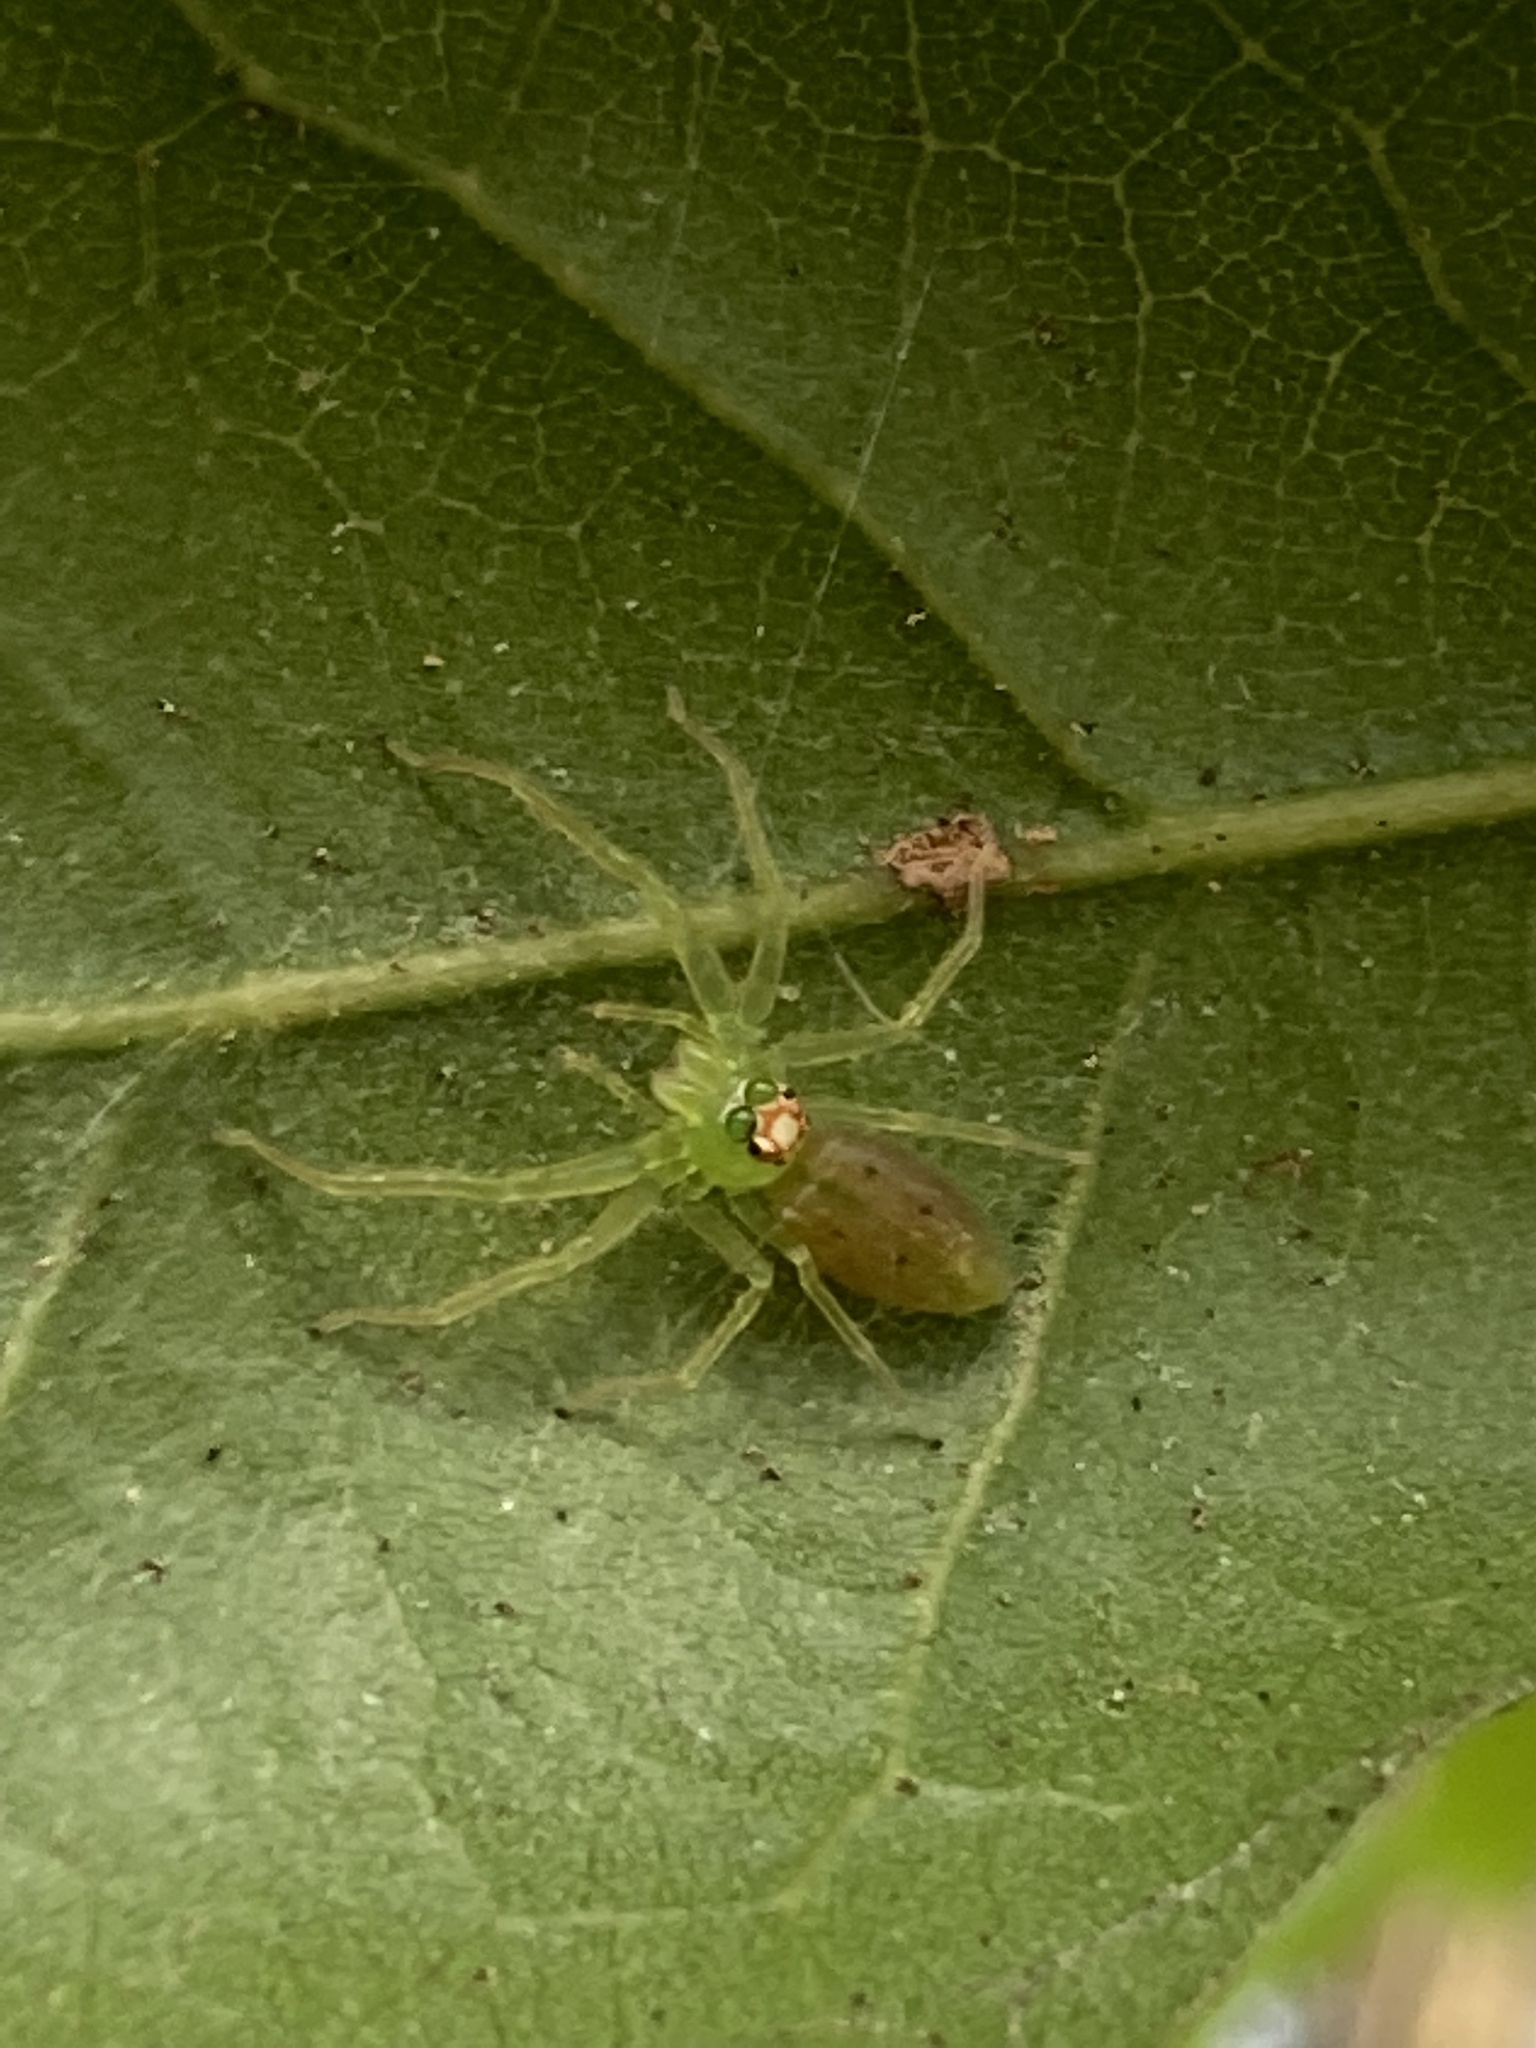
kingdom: Animalia
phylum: Arthropoda
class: Arachnida
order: Araneae
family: Salticidae
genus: Lyssomanes
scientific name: Lyssomanes viridis
